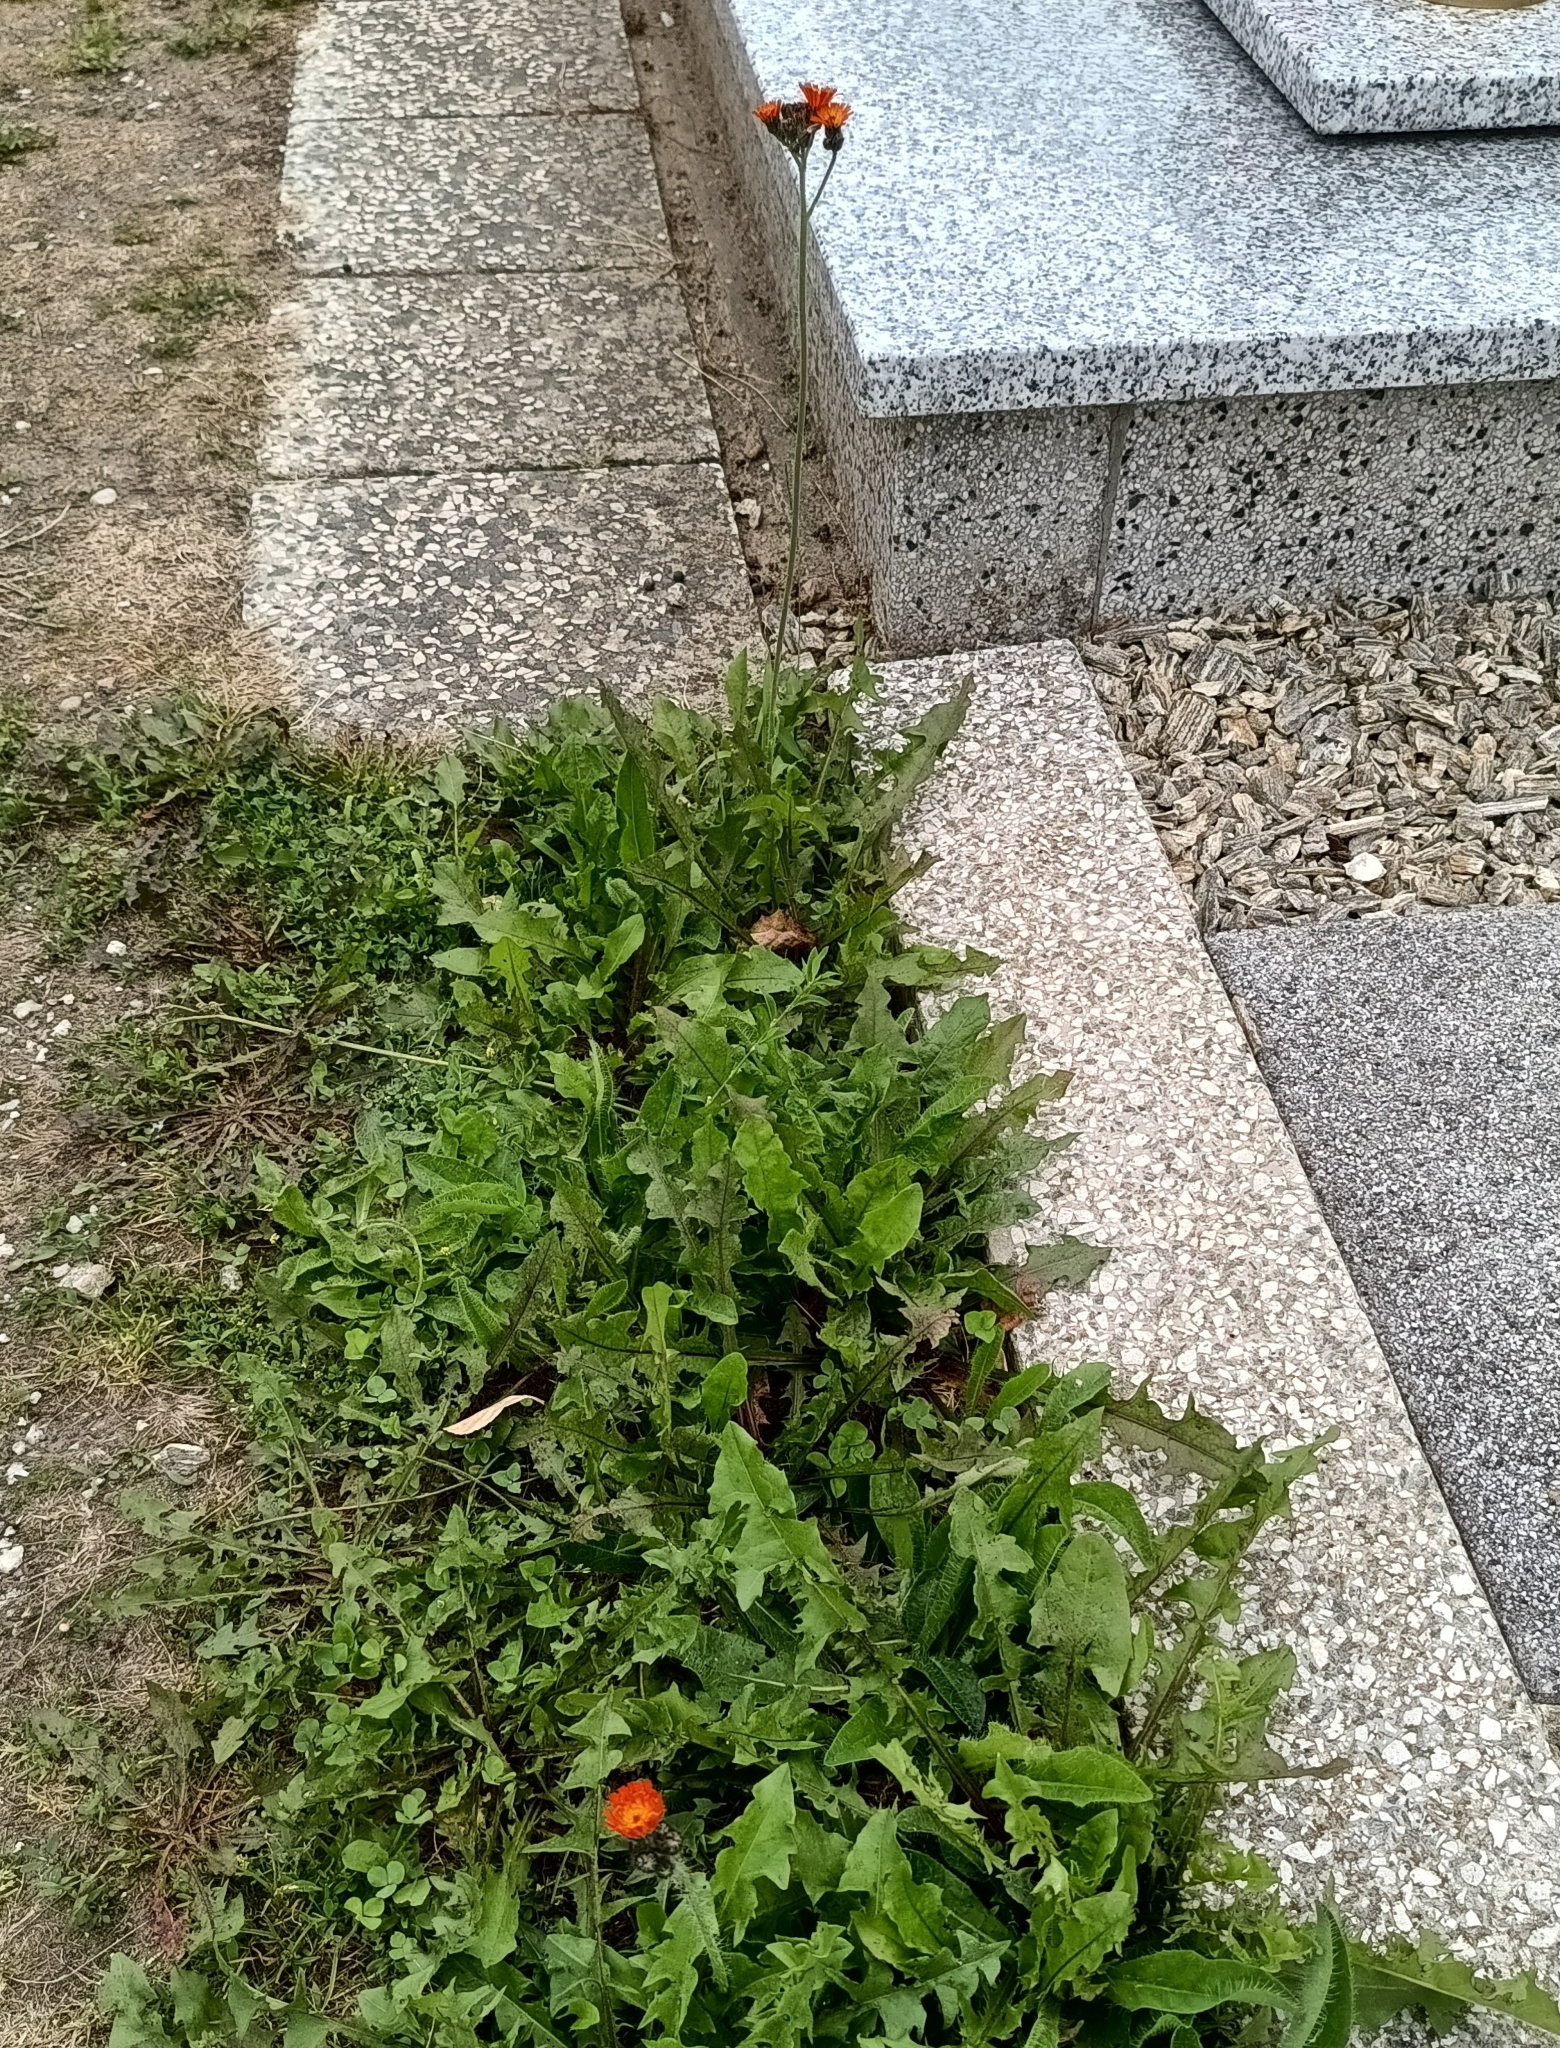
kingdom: Plantae
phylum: Tracheophyta
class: Magnoliopsida
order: Asterales
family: Asteraceae
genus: Pilosella
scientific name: Pilosella aurantiaca
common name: Fox-and-cubs
